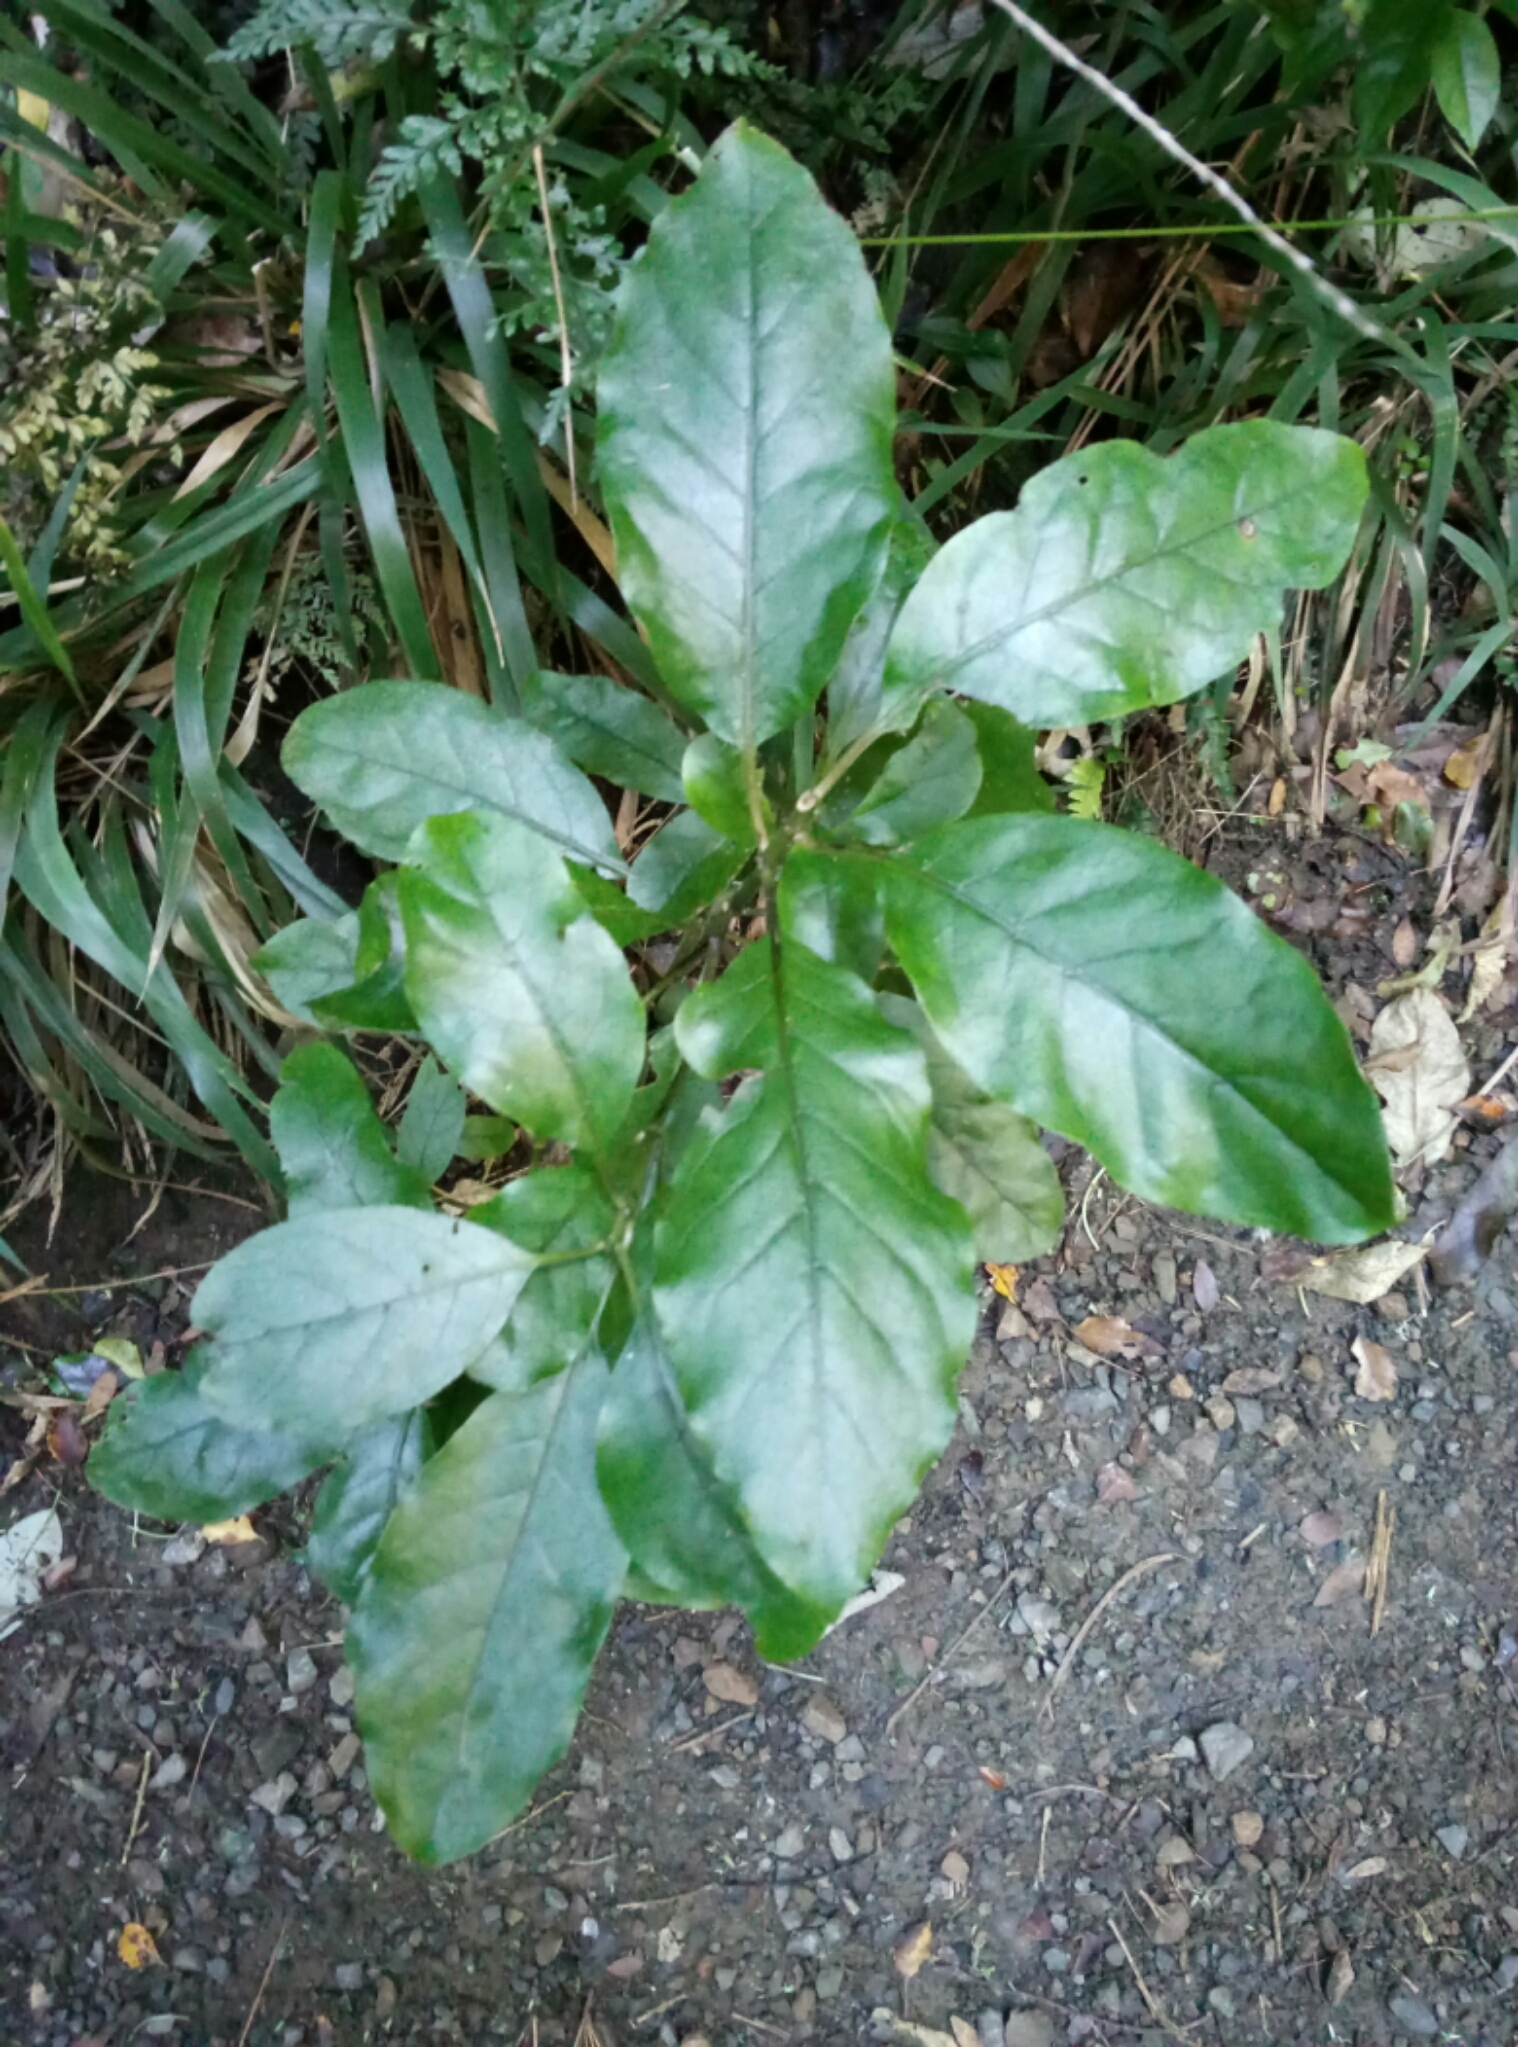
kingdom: Plantae
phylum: Tracheophyta
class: Magnoliopsida
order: Gentianales
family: Rubiaceae
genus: Coprosma
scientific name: Coprosma autumnalis
